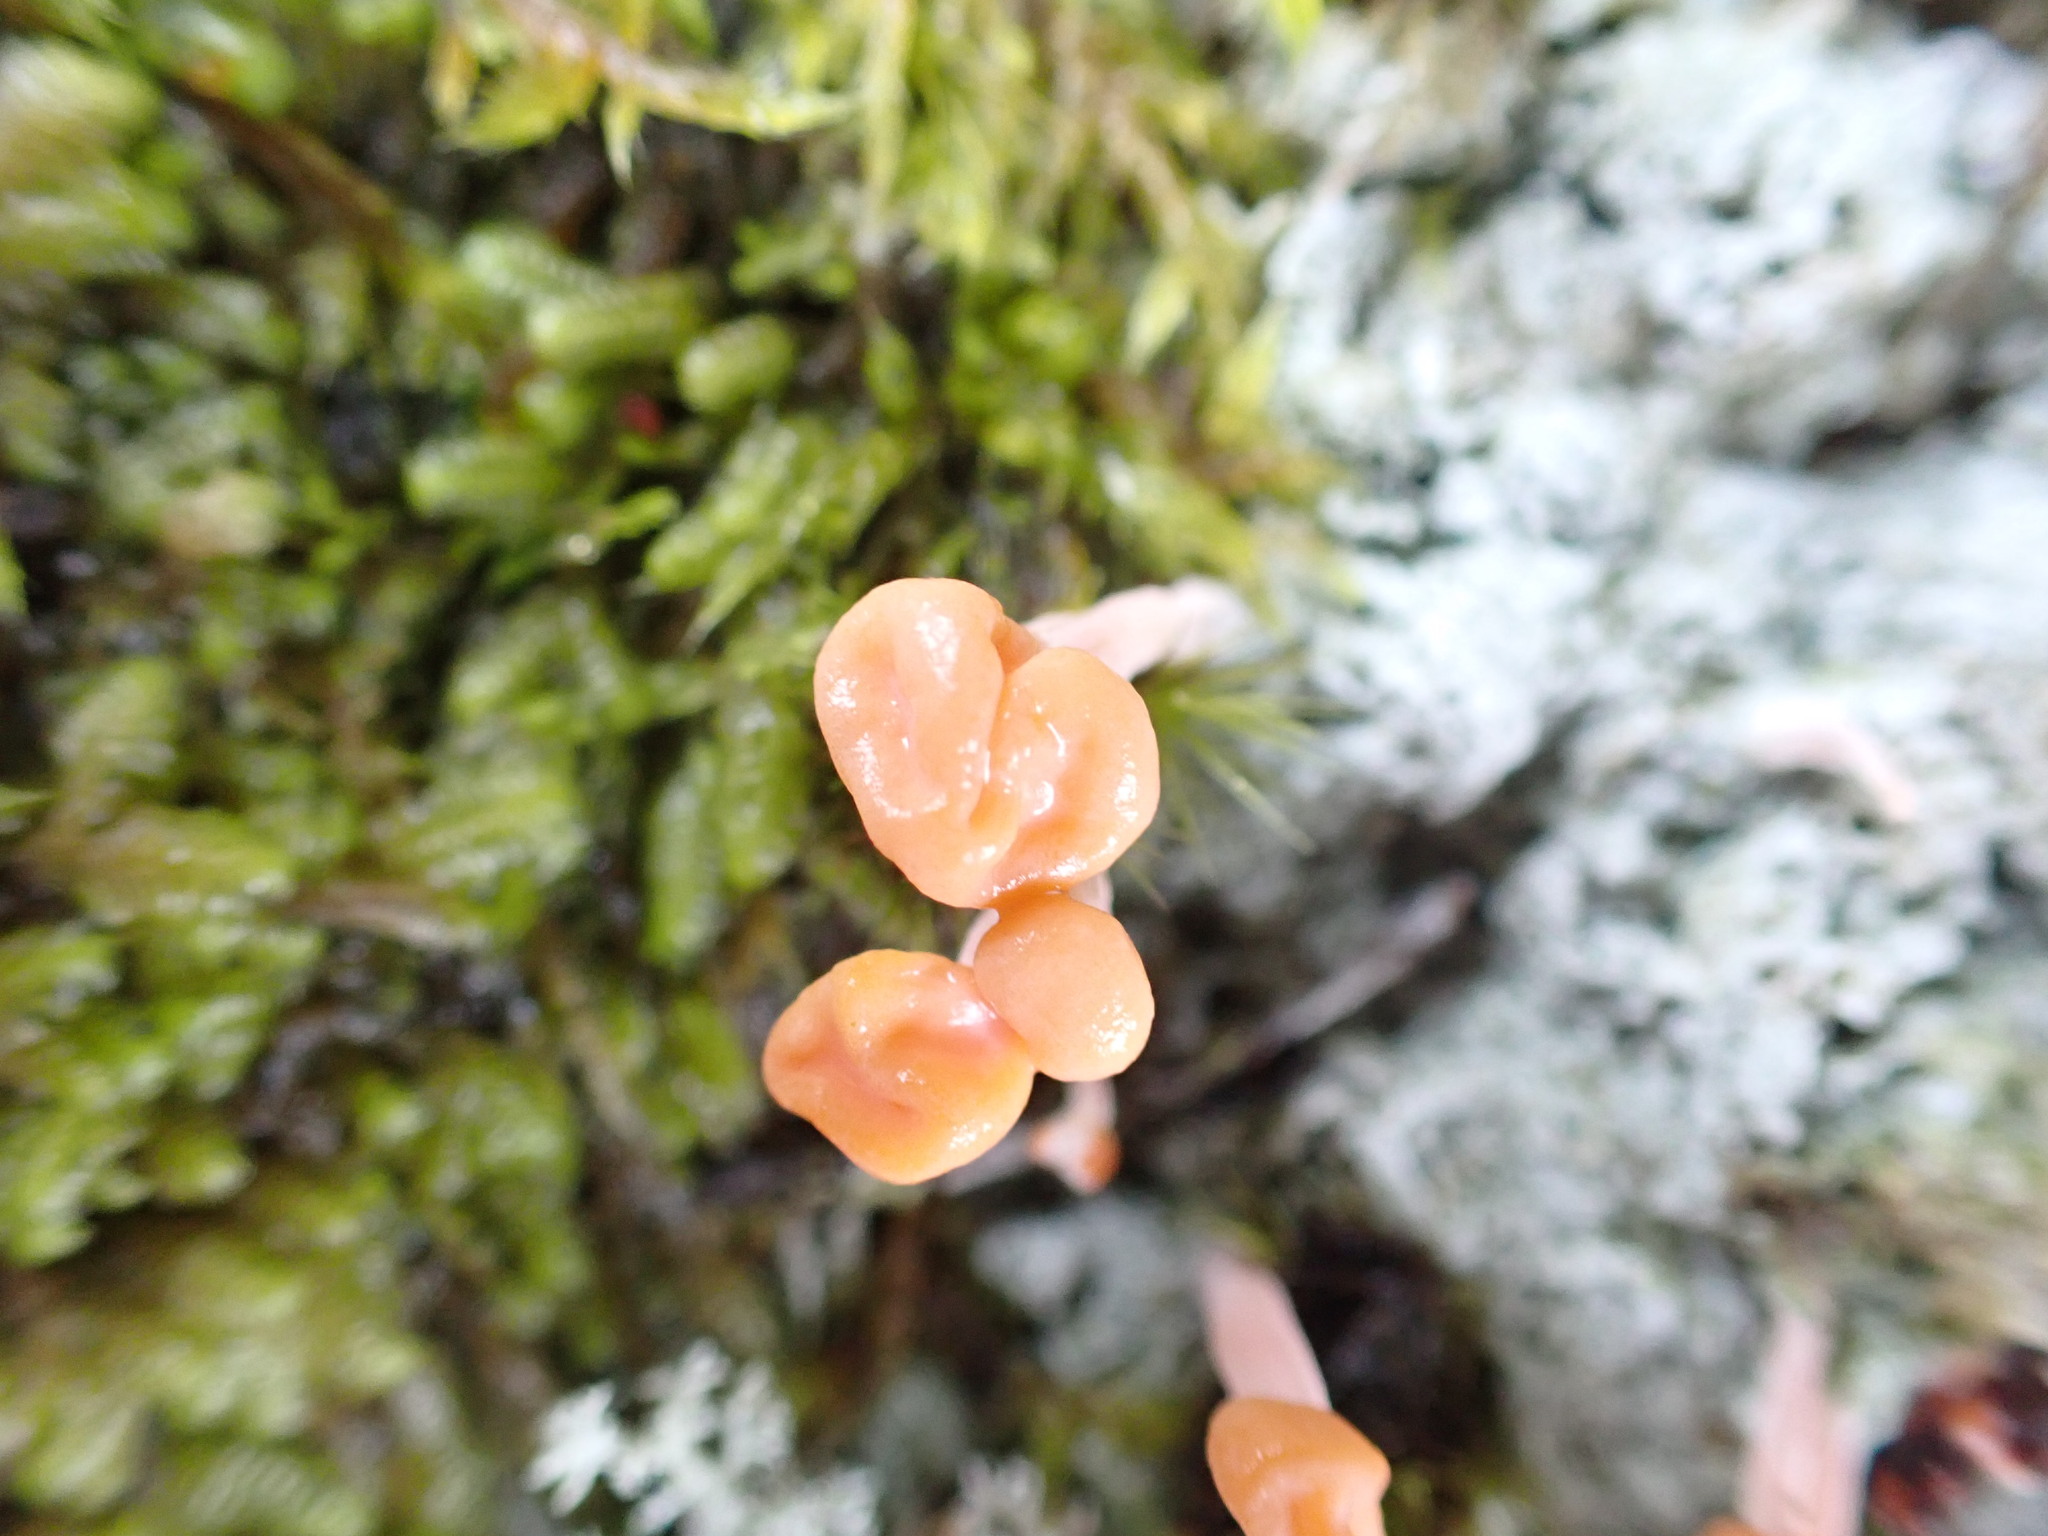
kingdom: Fungi
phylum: Ascomycota
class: Lecanoromycetes
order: Pertusariales
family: Icmadophilaceae
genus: Dibaeis
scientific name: Dibaeis arcuata
